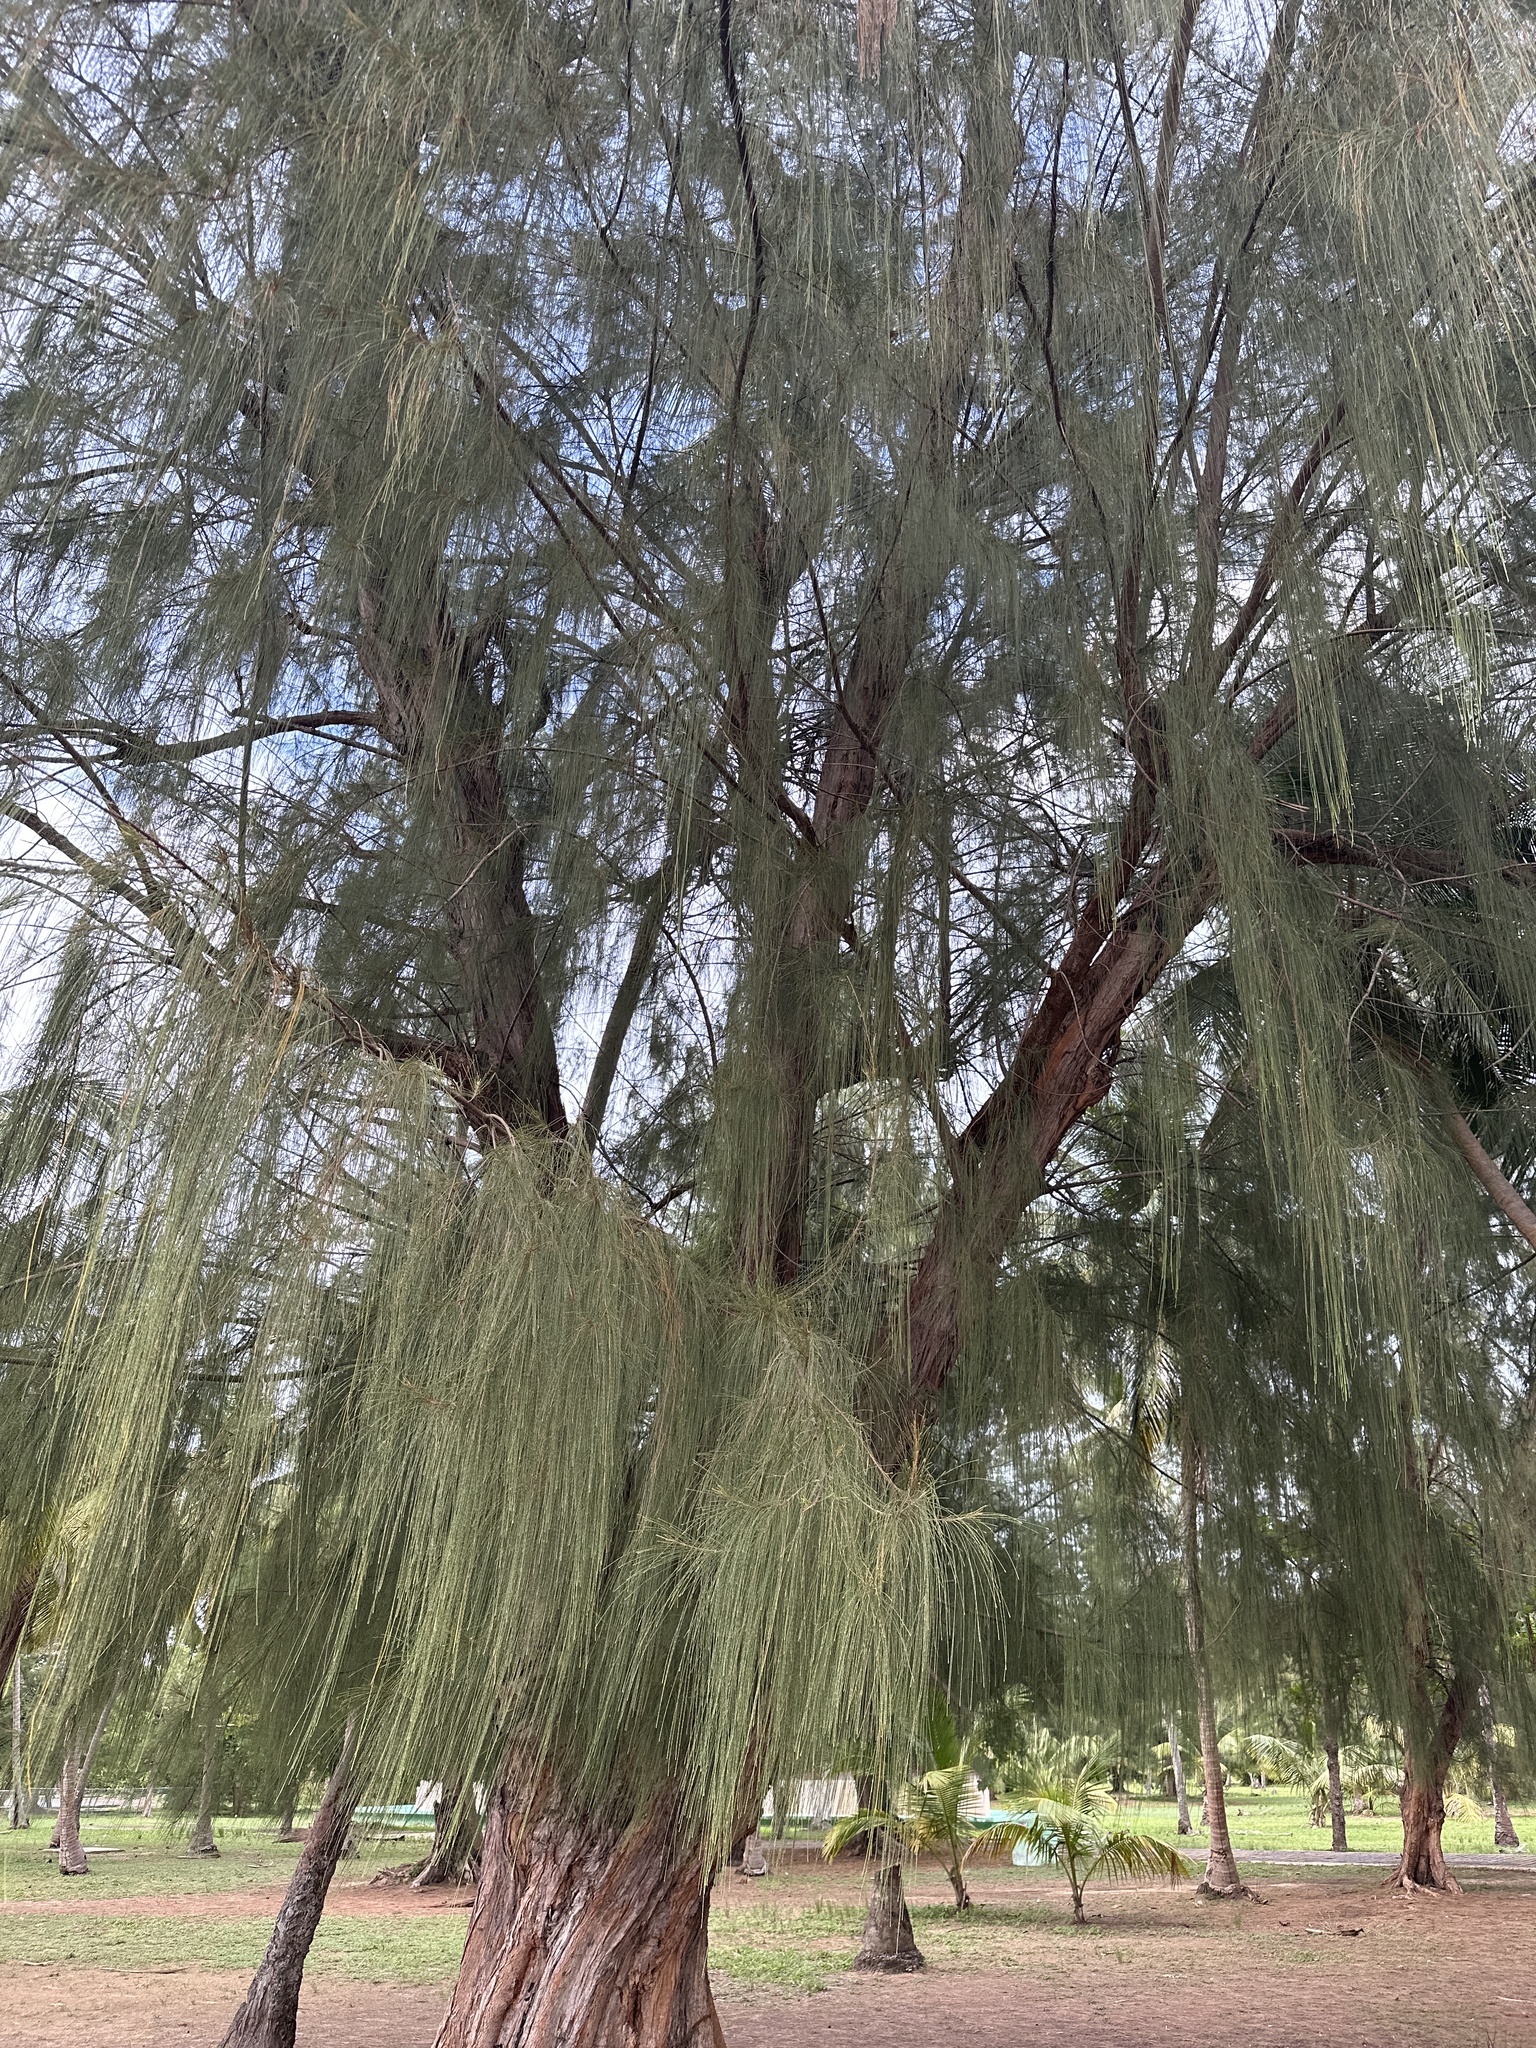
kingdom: Plantae
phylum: Tracheophyta
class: Magnoliopsida
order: Fagales
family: Casuarinaceae
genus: Casuarina
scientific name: Casuarina equisetifolia
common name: Beach sheoak
